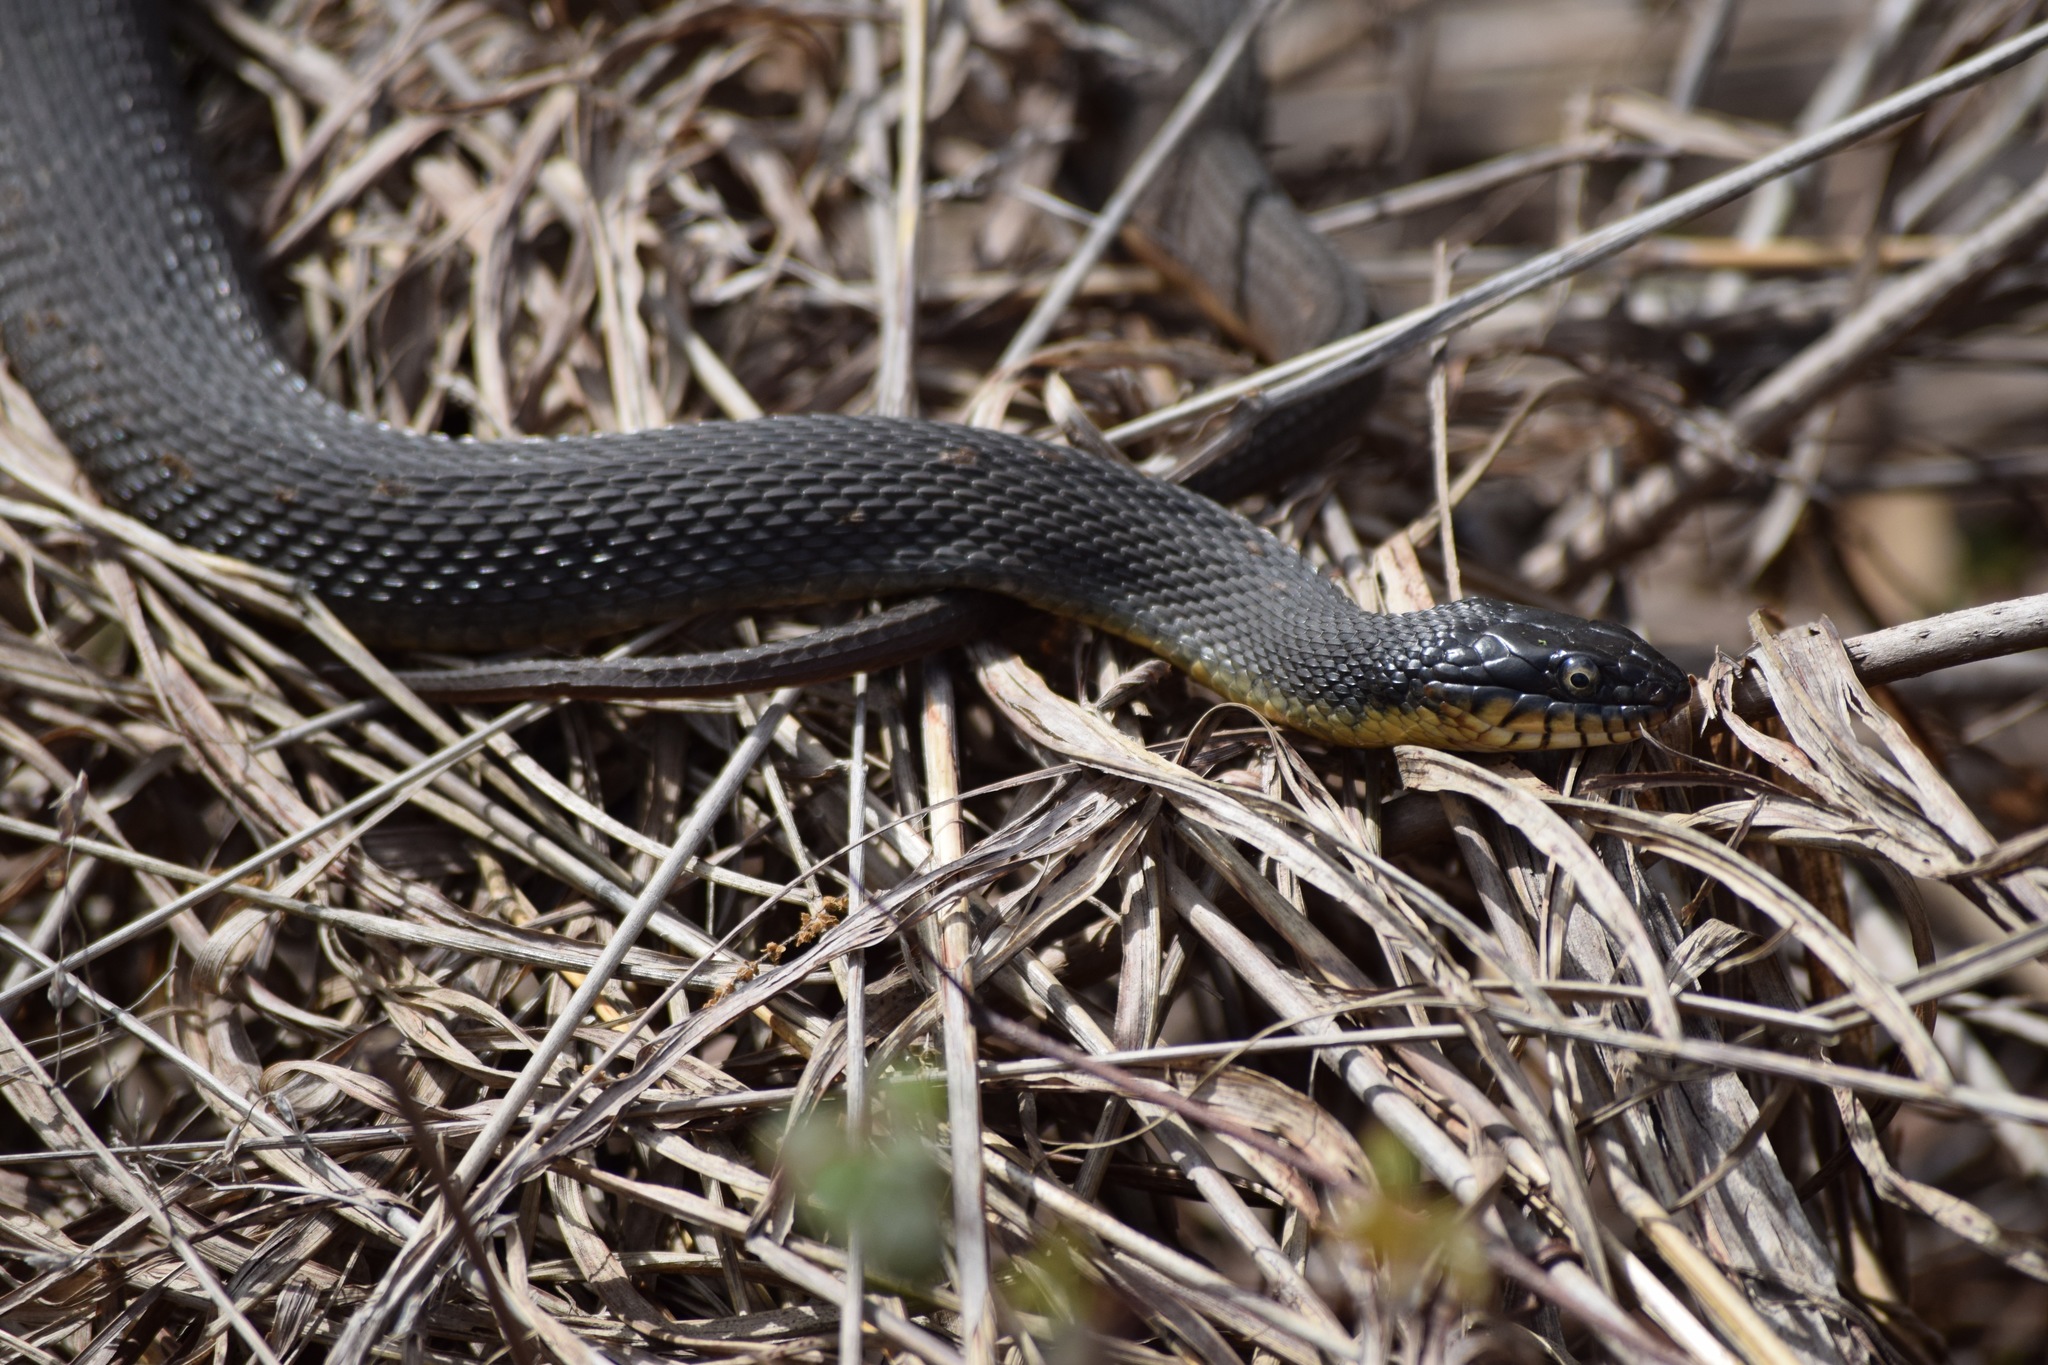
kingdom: Animalia
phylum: Chordata
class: Squamata
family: Colubridae
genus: Nerodia
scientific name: Nerodia erythrogaster
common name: Plainbelly water snake
